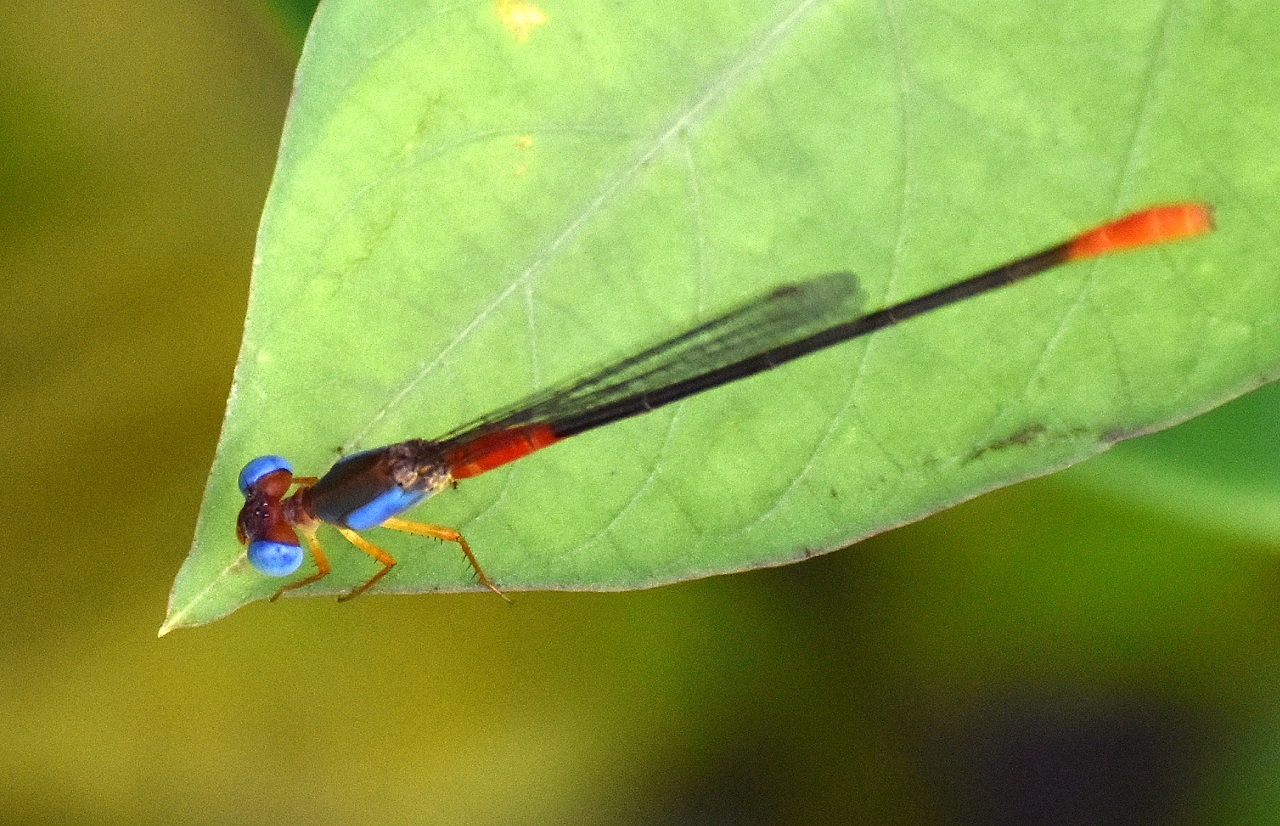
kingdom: Animalia
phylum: Arthropoda
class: Insecta
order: Odonata
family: Coenagrionidae
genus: Ceriagrion
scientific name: Ceriagrion cerinorubellum
